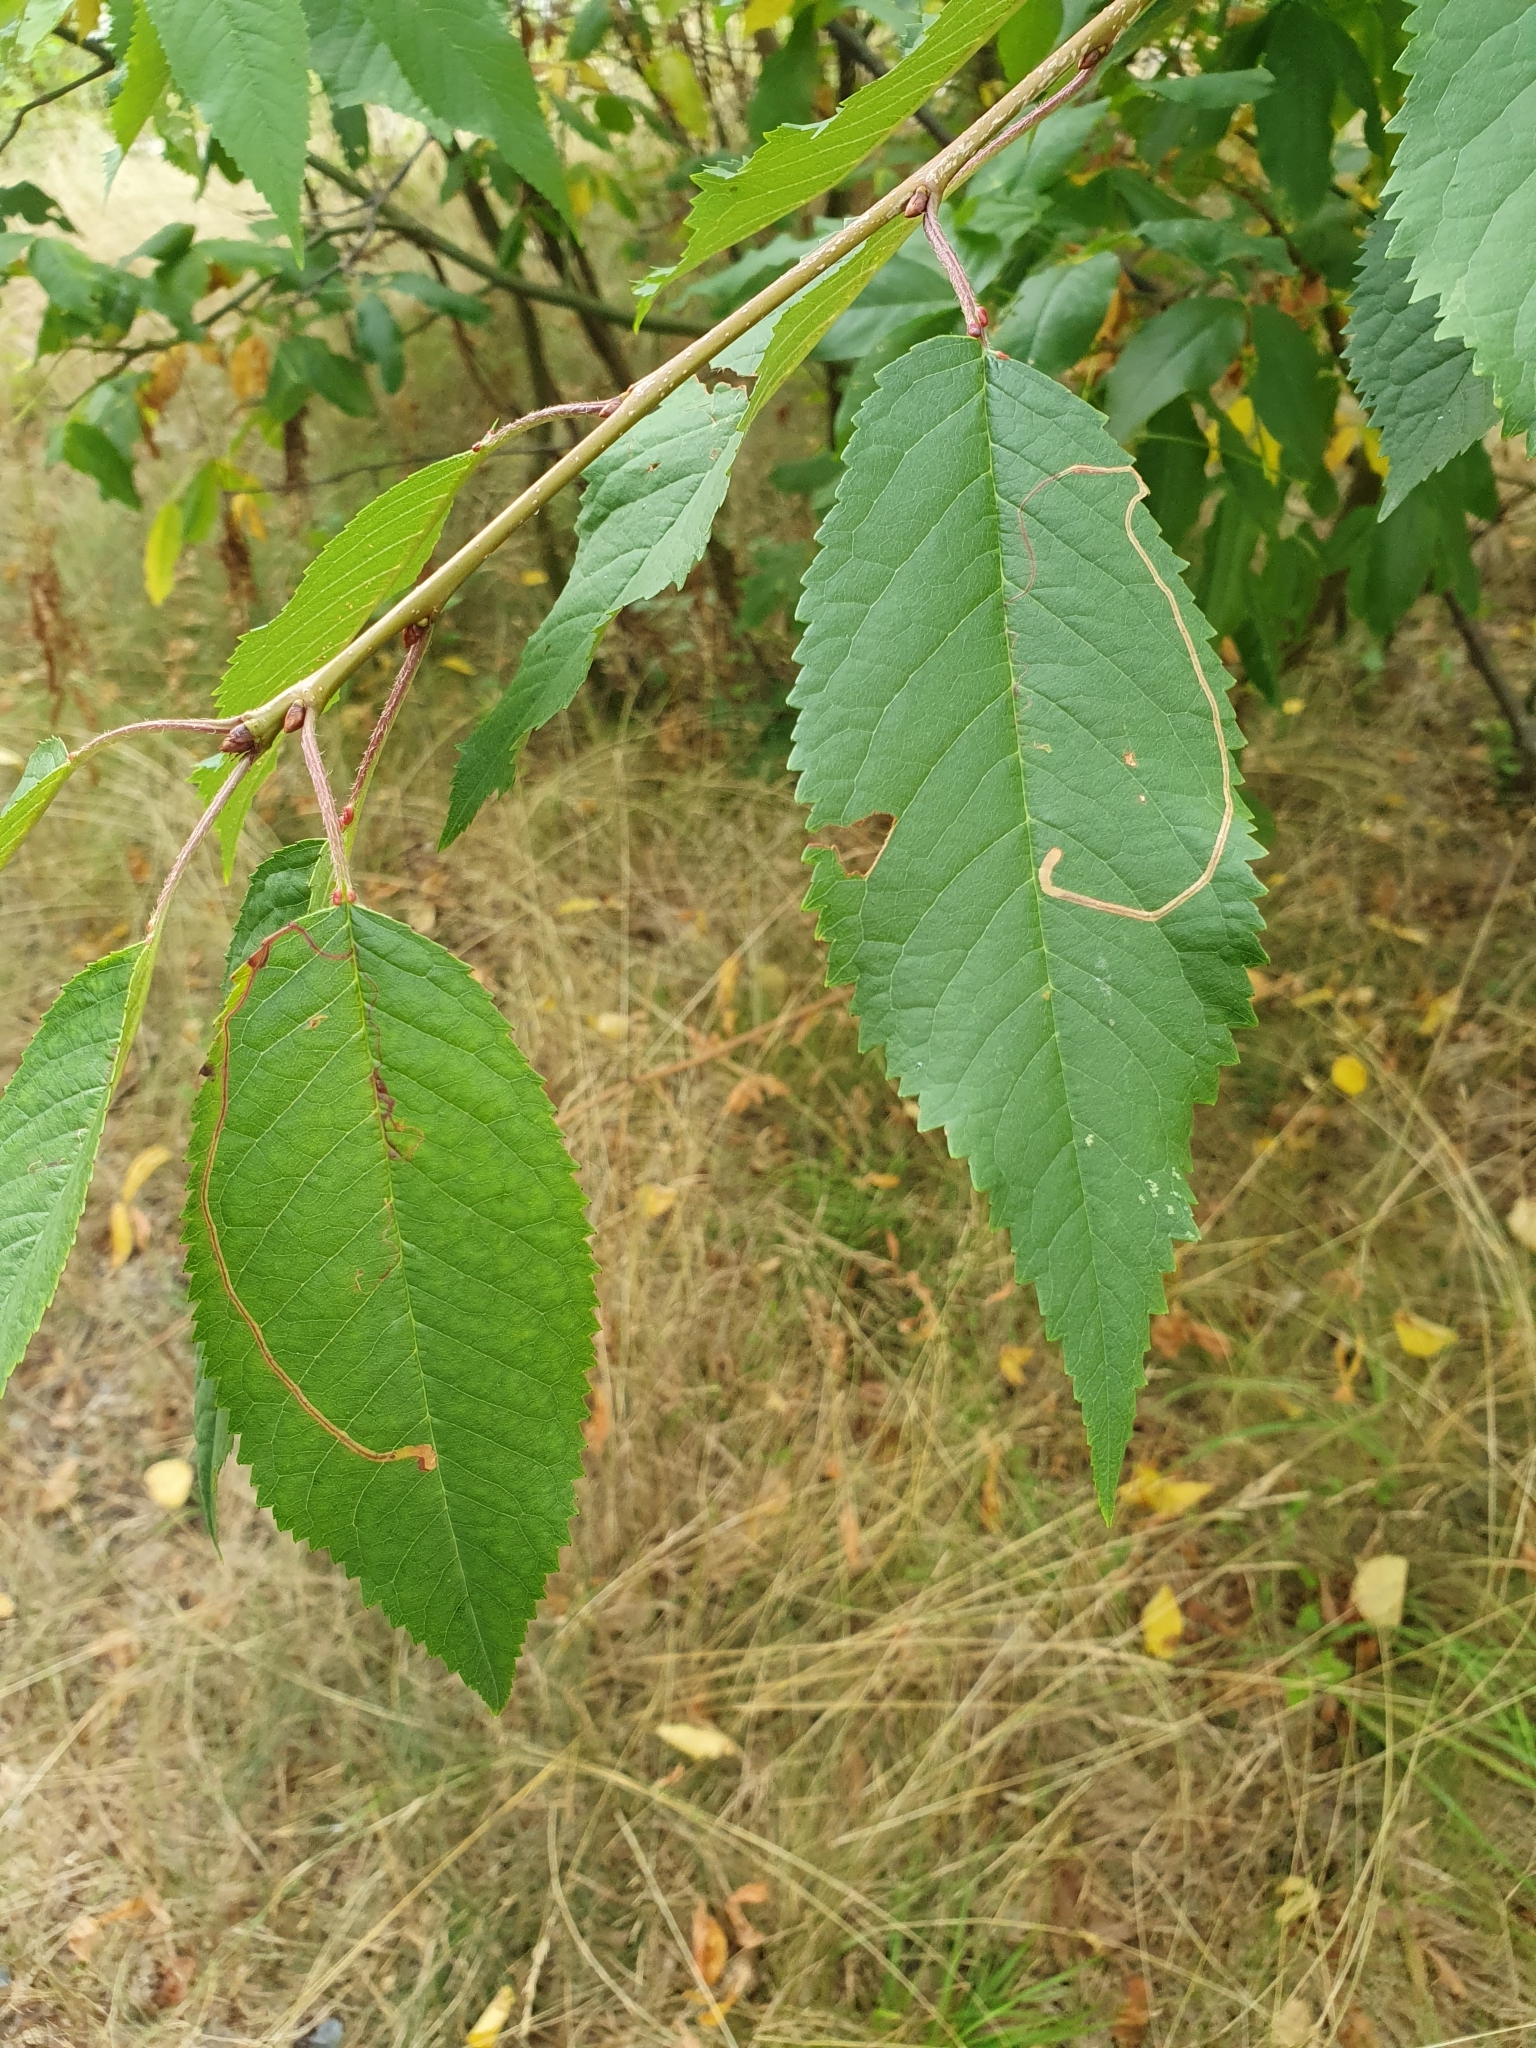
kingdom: Animalia
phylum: Arthropoda
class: Insecta
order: Lepidoptera
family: Lyonetiidae
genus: Lyonetia
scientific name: Lyonetia clerkella
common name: Apple leaf miner
